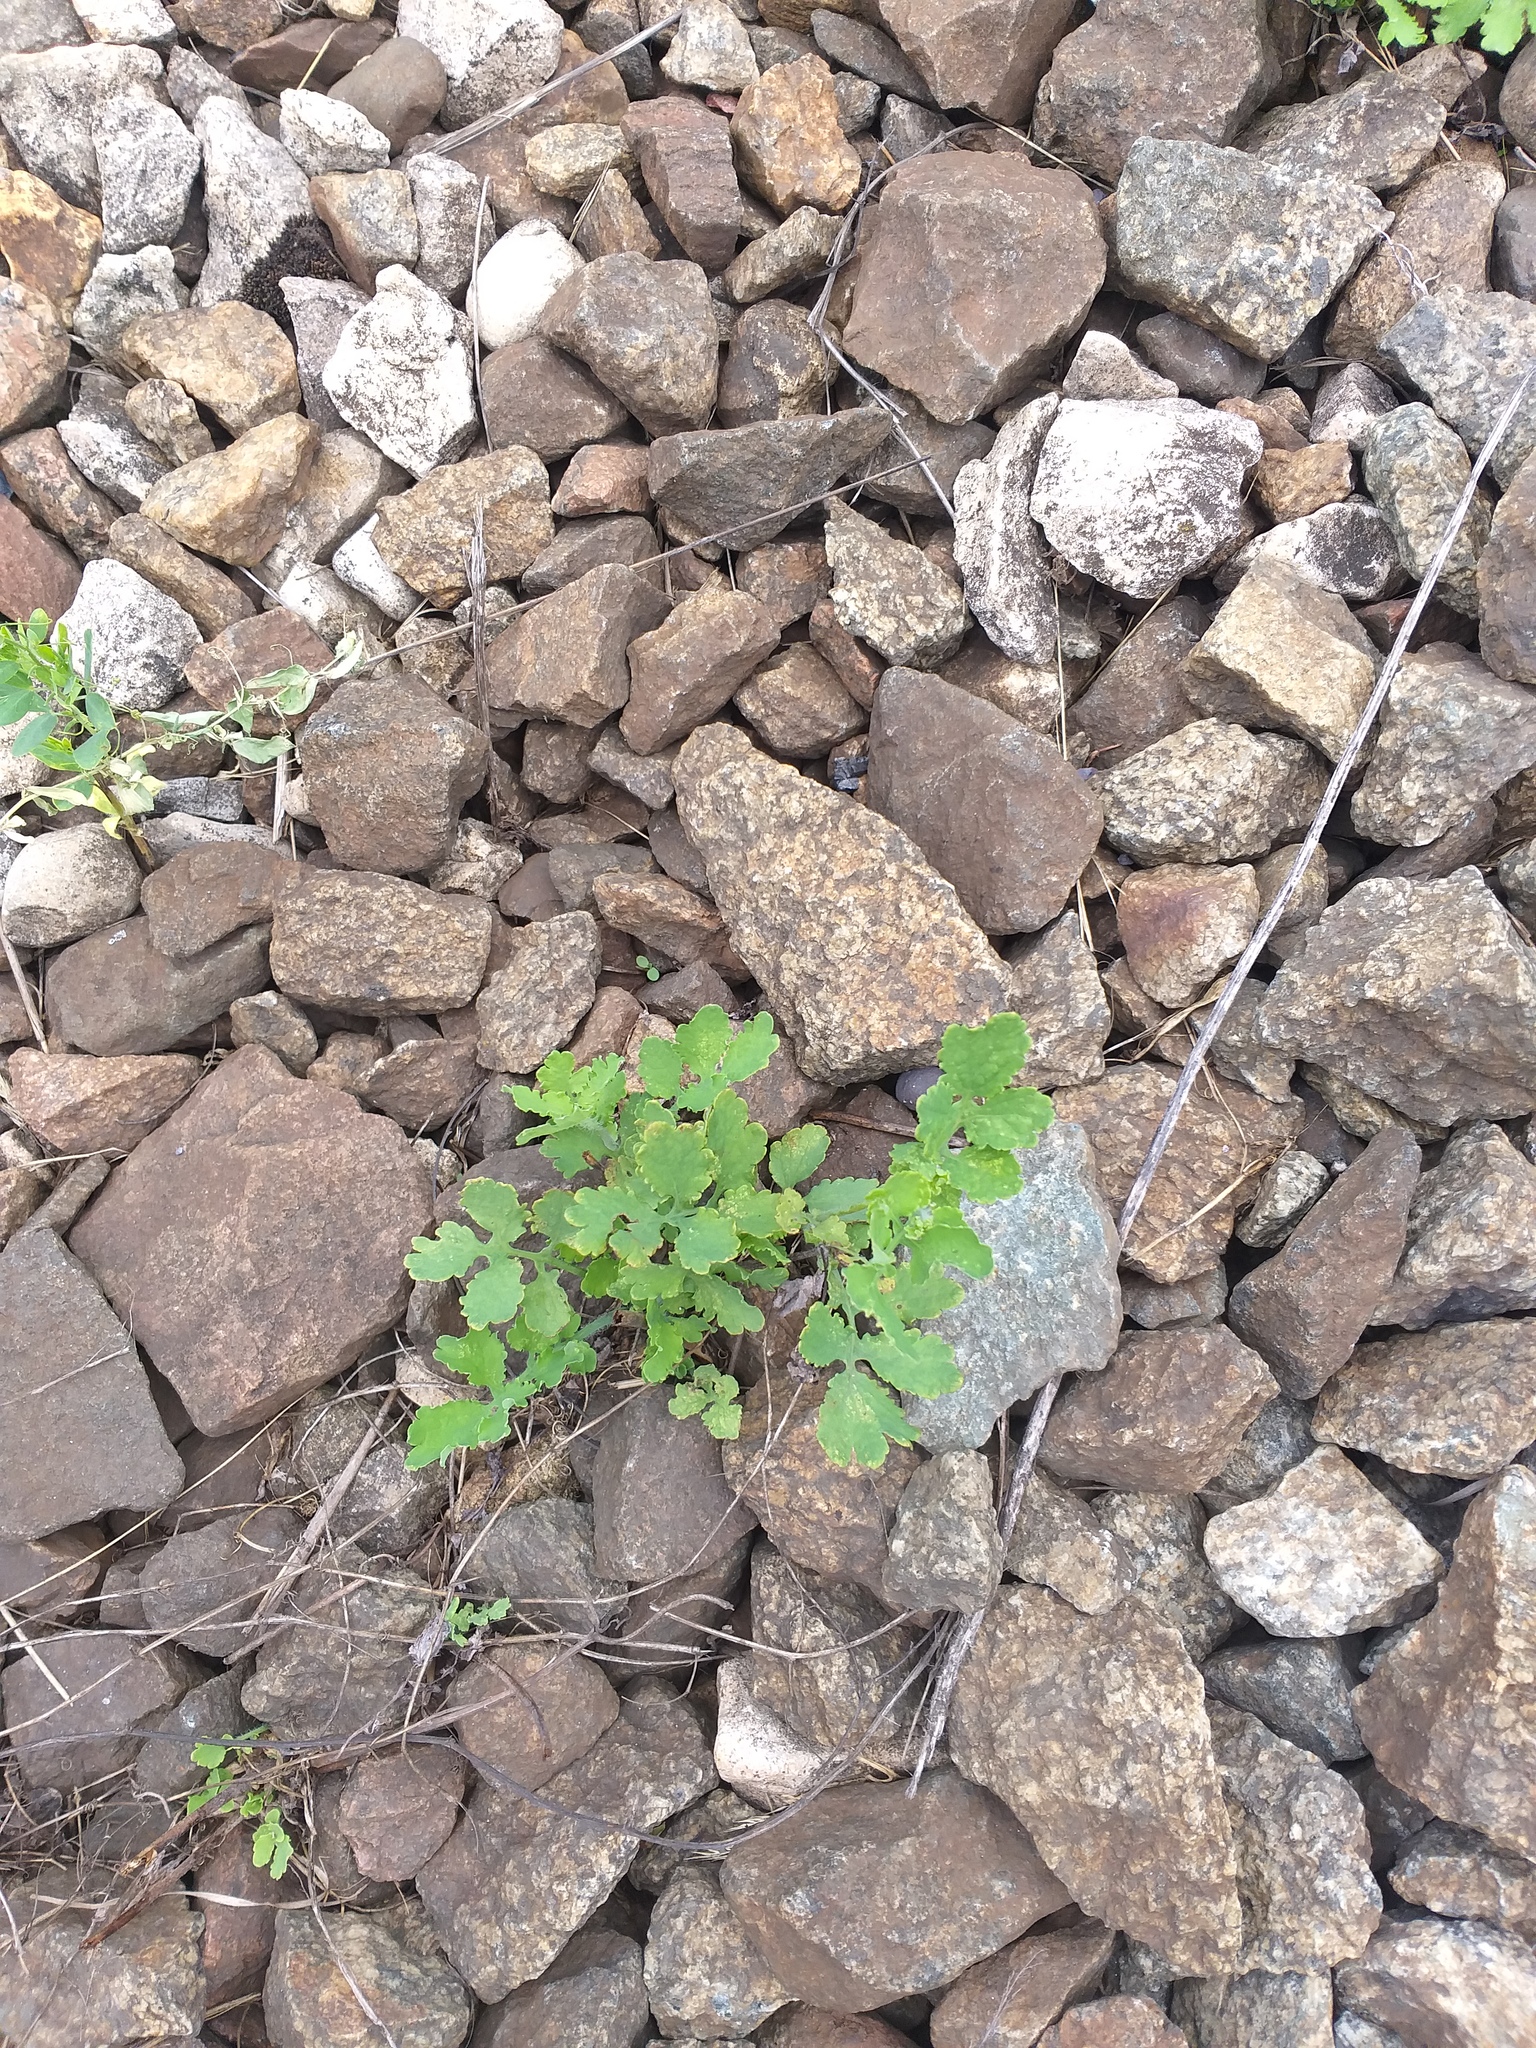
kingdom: Plantae
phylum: Tracheophyta
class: Magnoliopsida
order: Ranunculales
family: Papaveraceae
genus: Chelidonium
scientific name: Chelidonium majus
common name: Greater celandine
